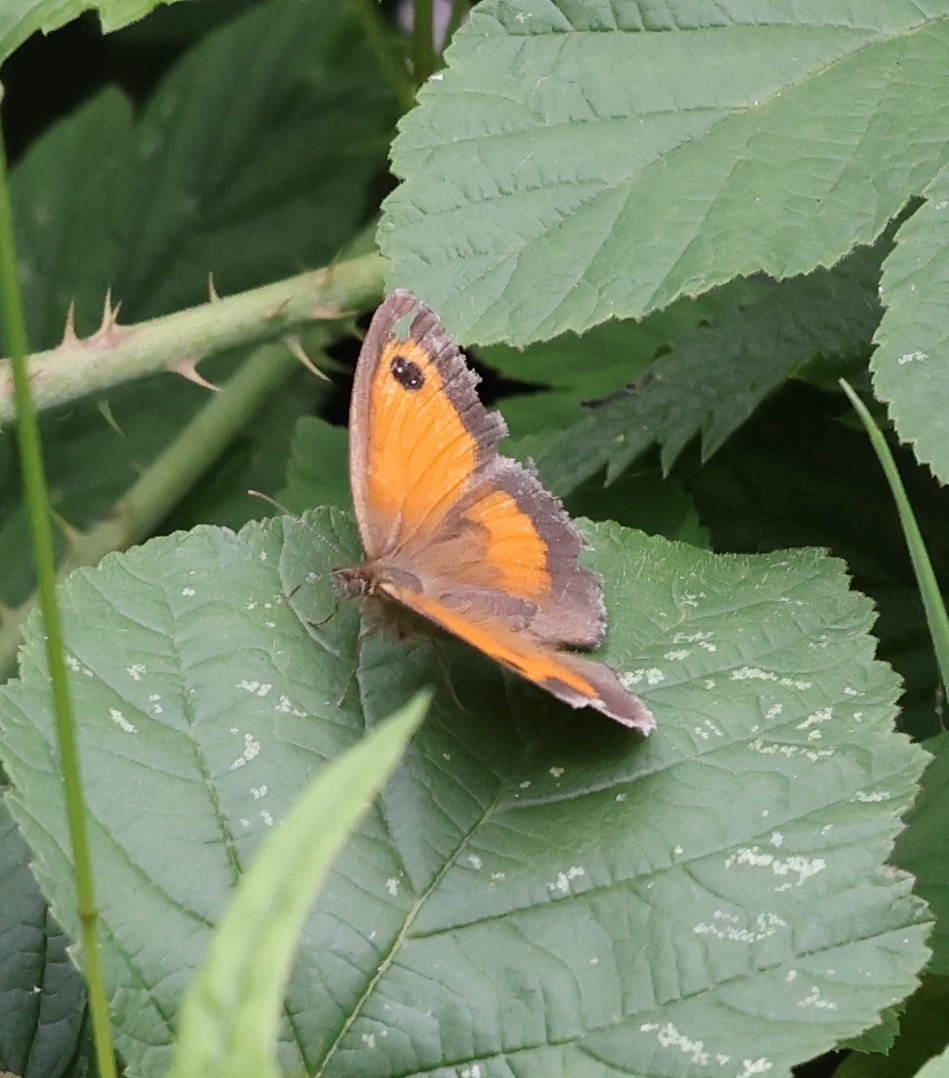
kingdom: Animalia
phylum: Arthropoda
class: Insecta
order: Lepidoptera
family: Nymphalidae
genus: Pyronia
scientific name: Pyronia tithonus
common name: Gatekeeper
